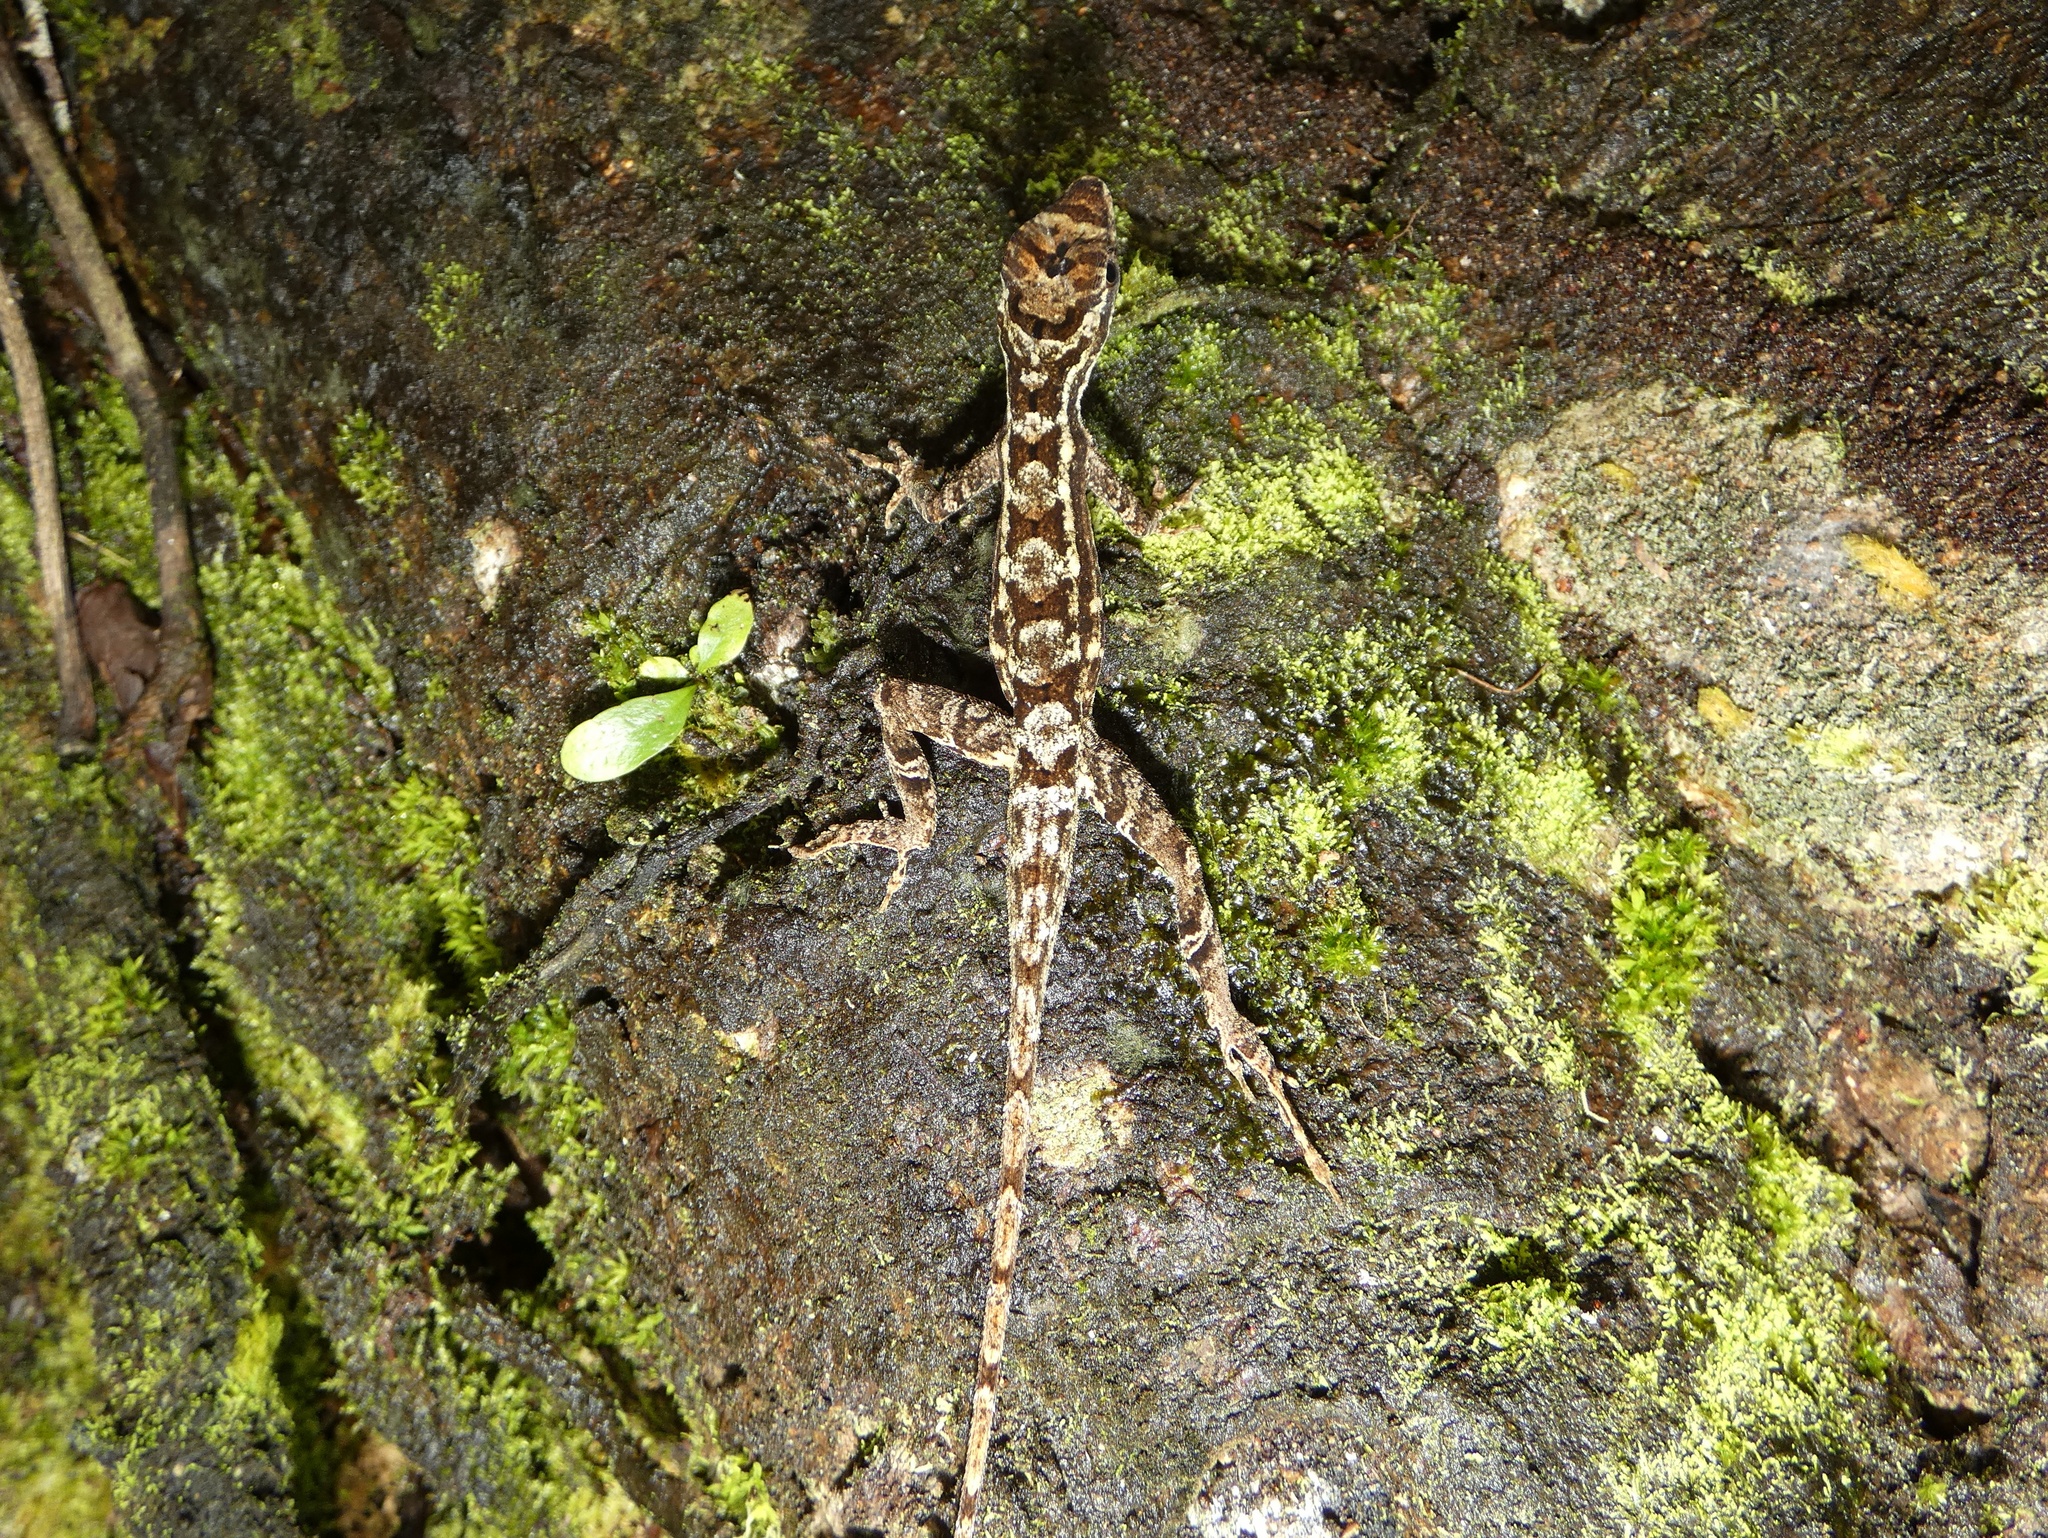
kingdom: Animalia
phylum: Chordata
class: Squamata
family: Dactyloidae
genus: Anolis
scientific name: Anolis lemurinus
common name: Ghost anole
